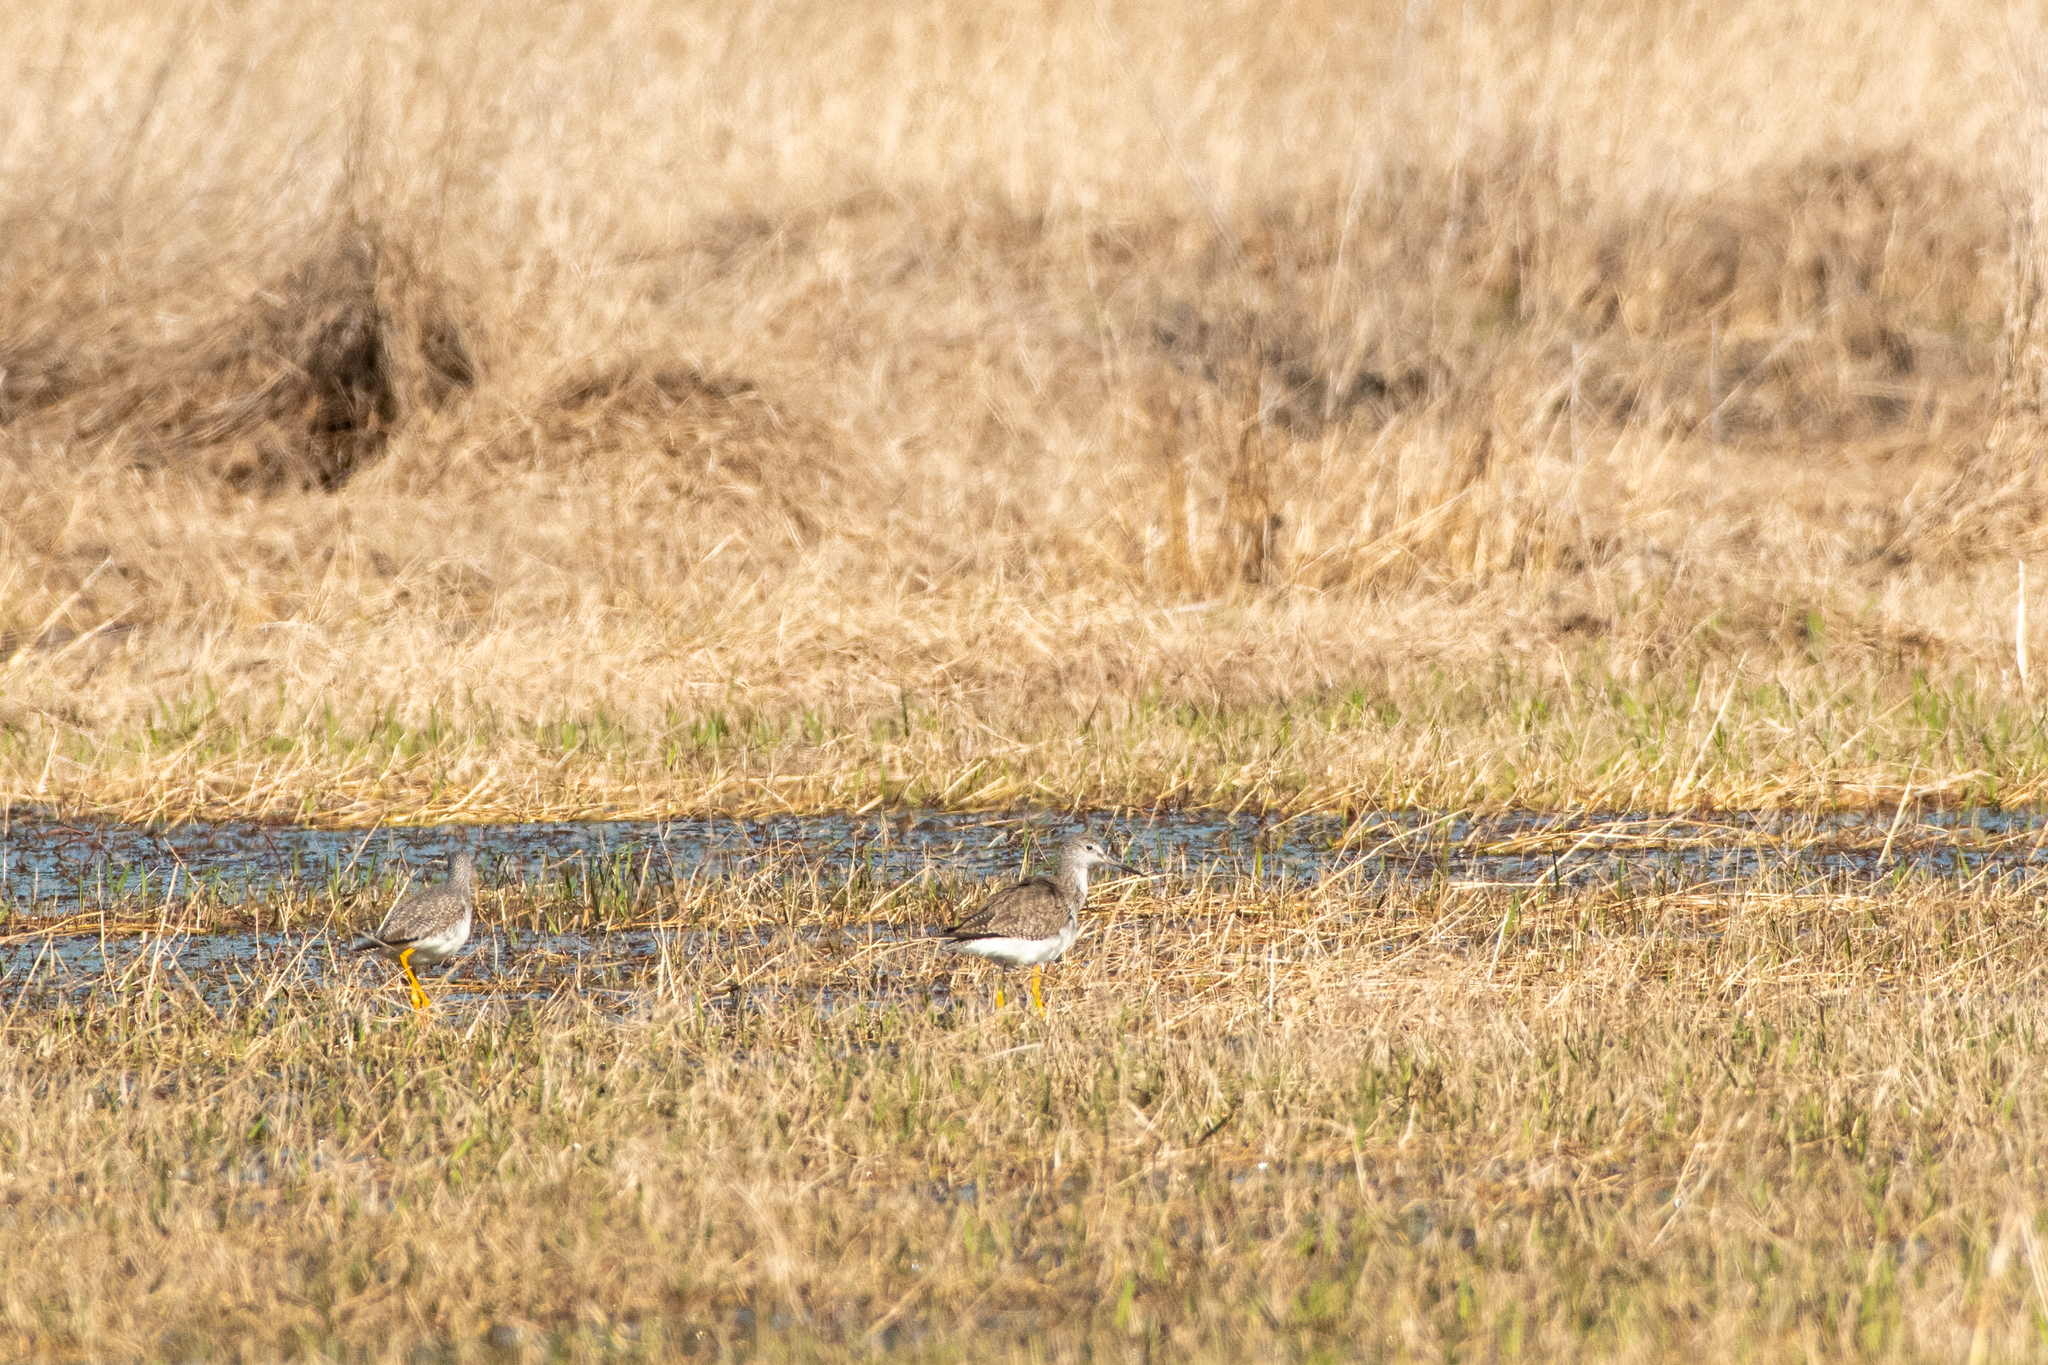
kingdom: Animalia
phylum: Chordata
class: Aves
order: Charadriiformes
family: Scolopacidae
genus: Tringa
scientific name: Tringa melanoleuca
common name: Greater yellowlegs
